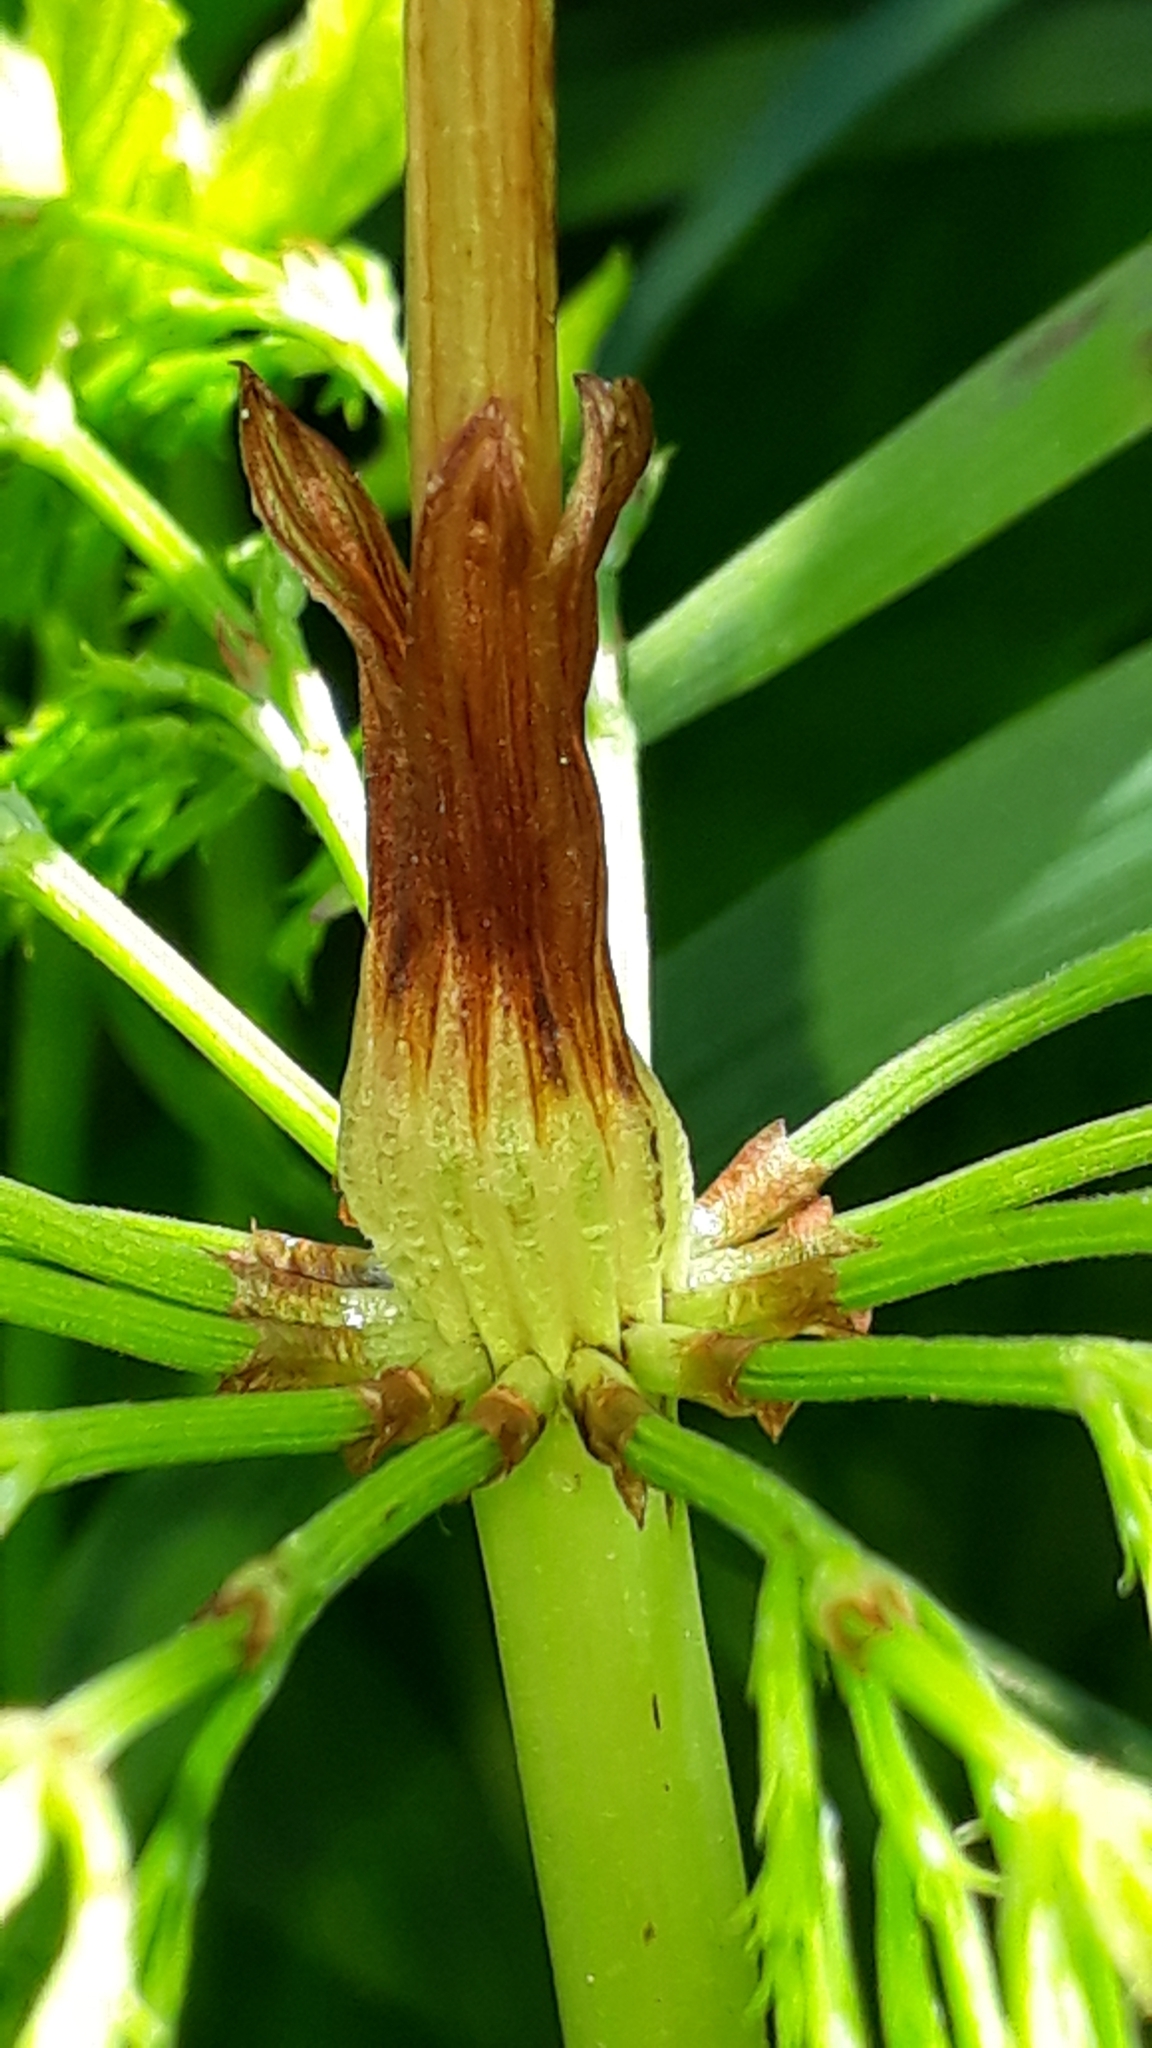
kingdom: Plantae
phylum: Tracheophyta
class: Polypodiopsida
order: Equisetales
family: Equisetaceae
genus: Equisetum
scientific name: Equisetum sylvaticum
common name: Wood horsetail
